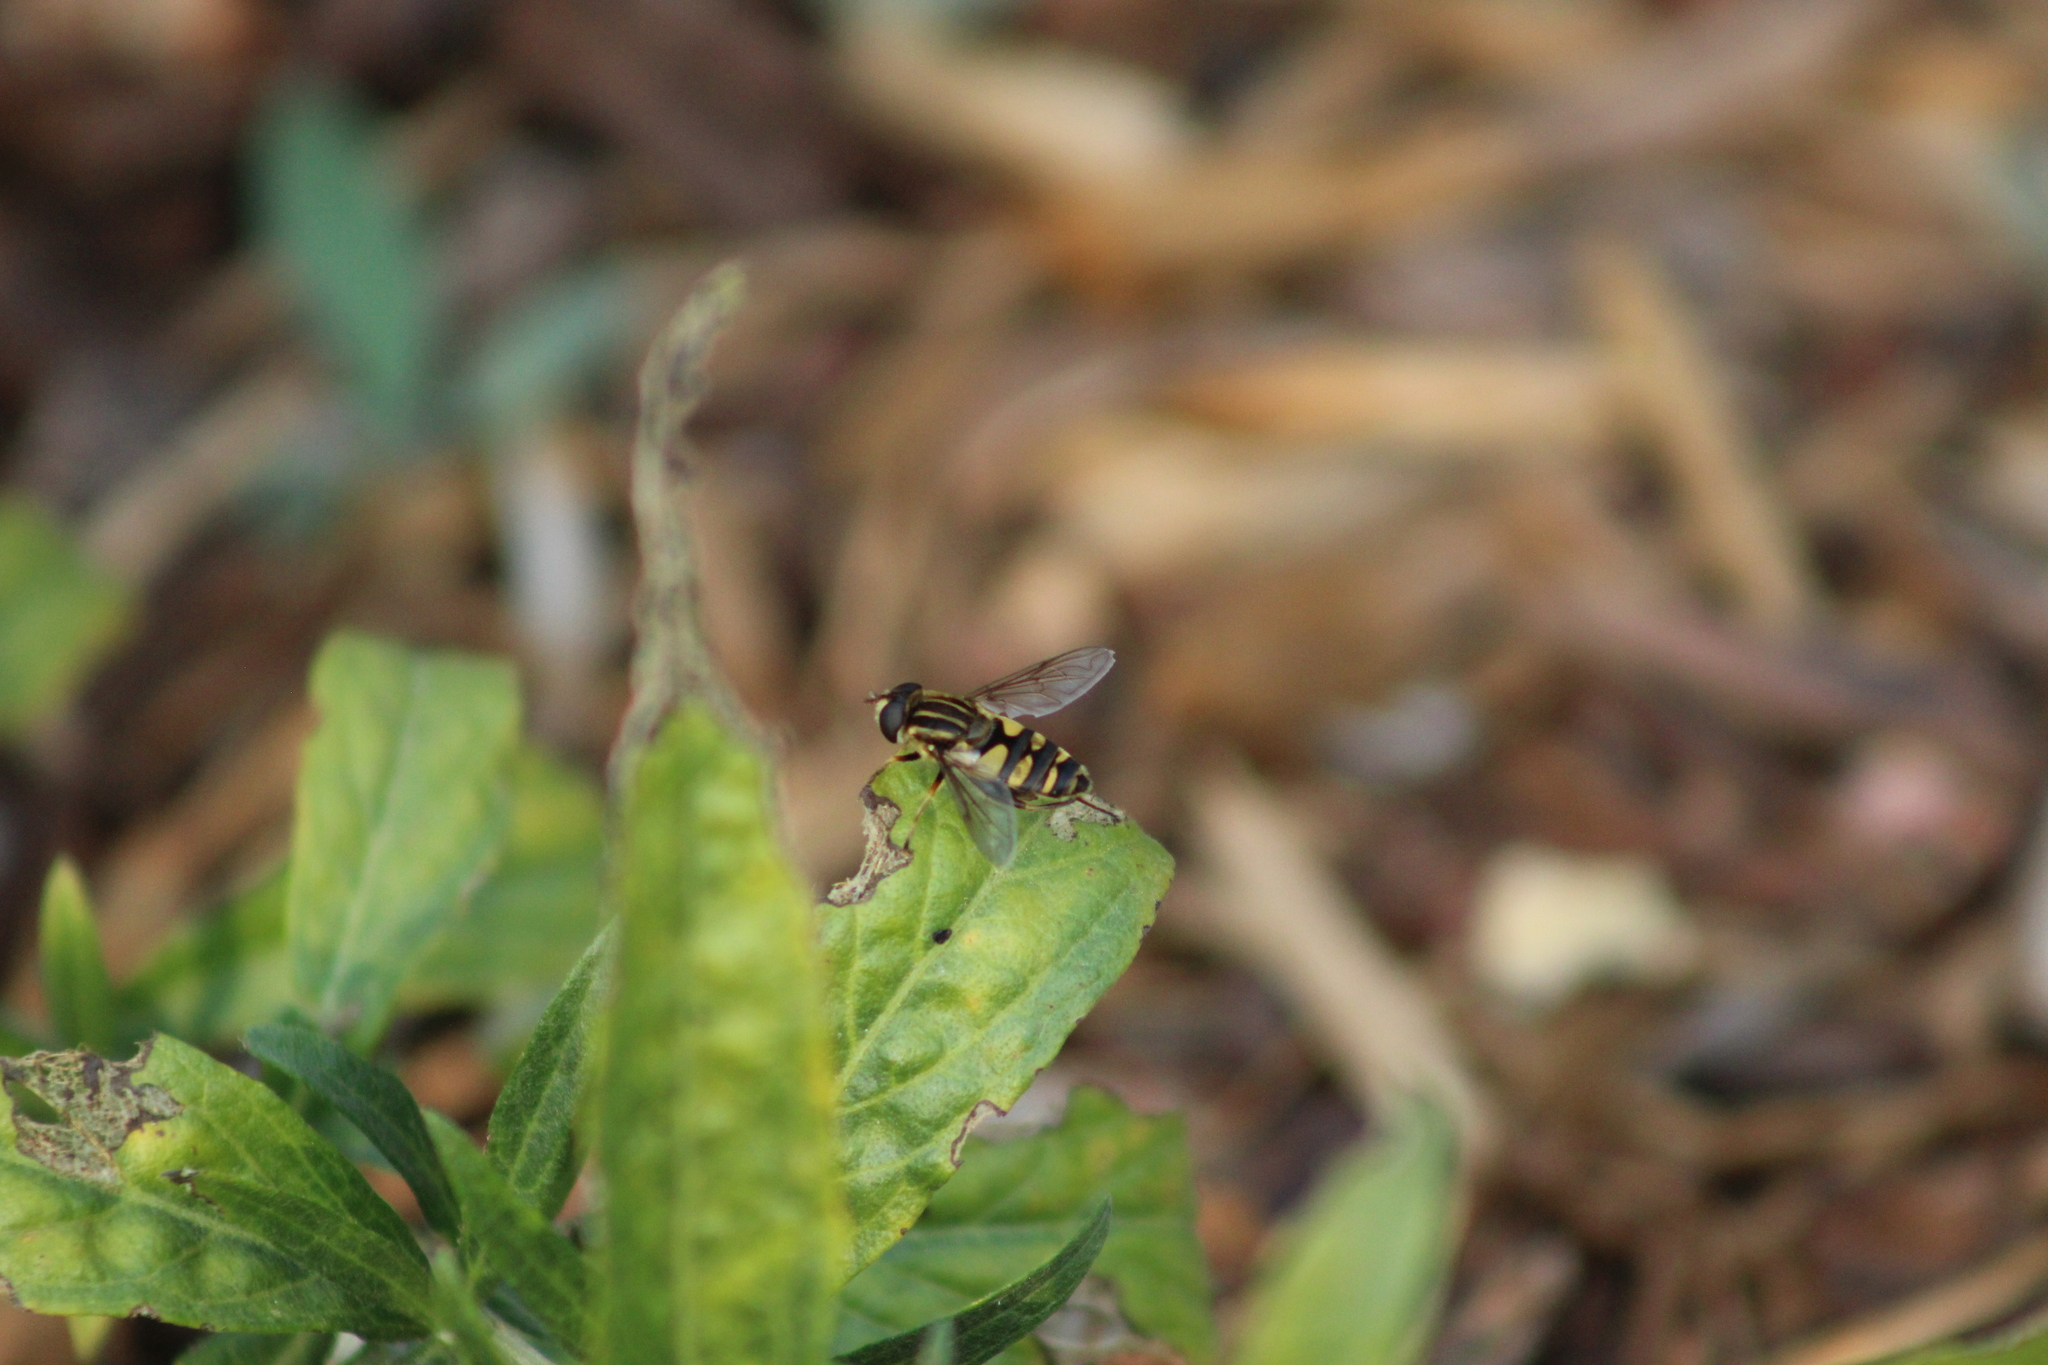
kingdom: Animalia
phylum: Arthropoda
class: Insecta
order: Diptera
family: Syrphidae
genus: Helophilus
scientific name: Helophilus fasciatus
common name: Narrow-headed marsh fly
